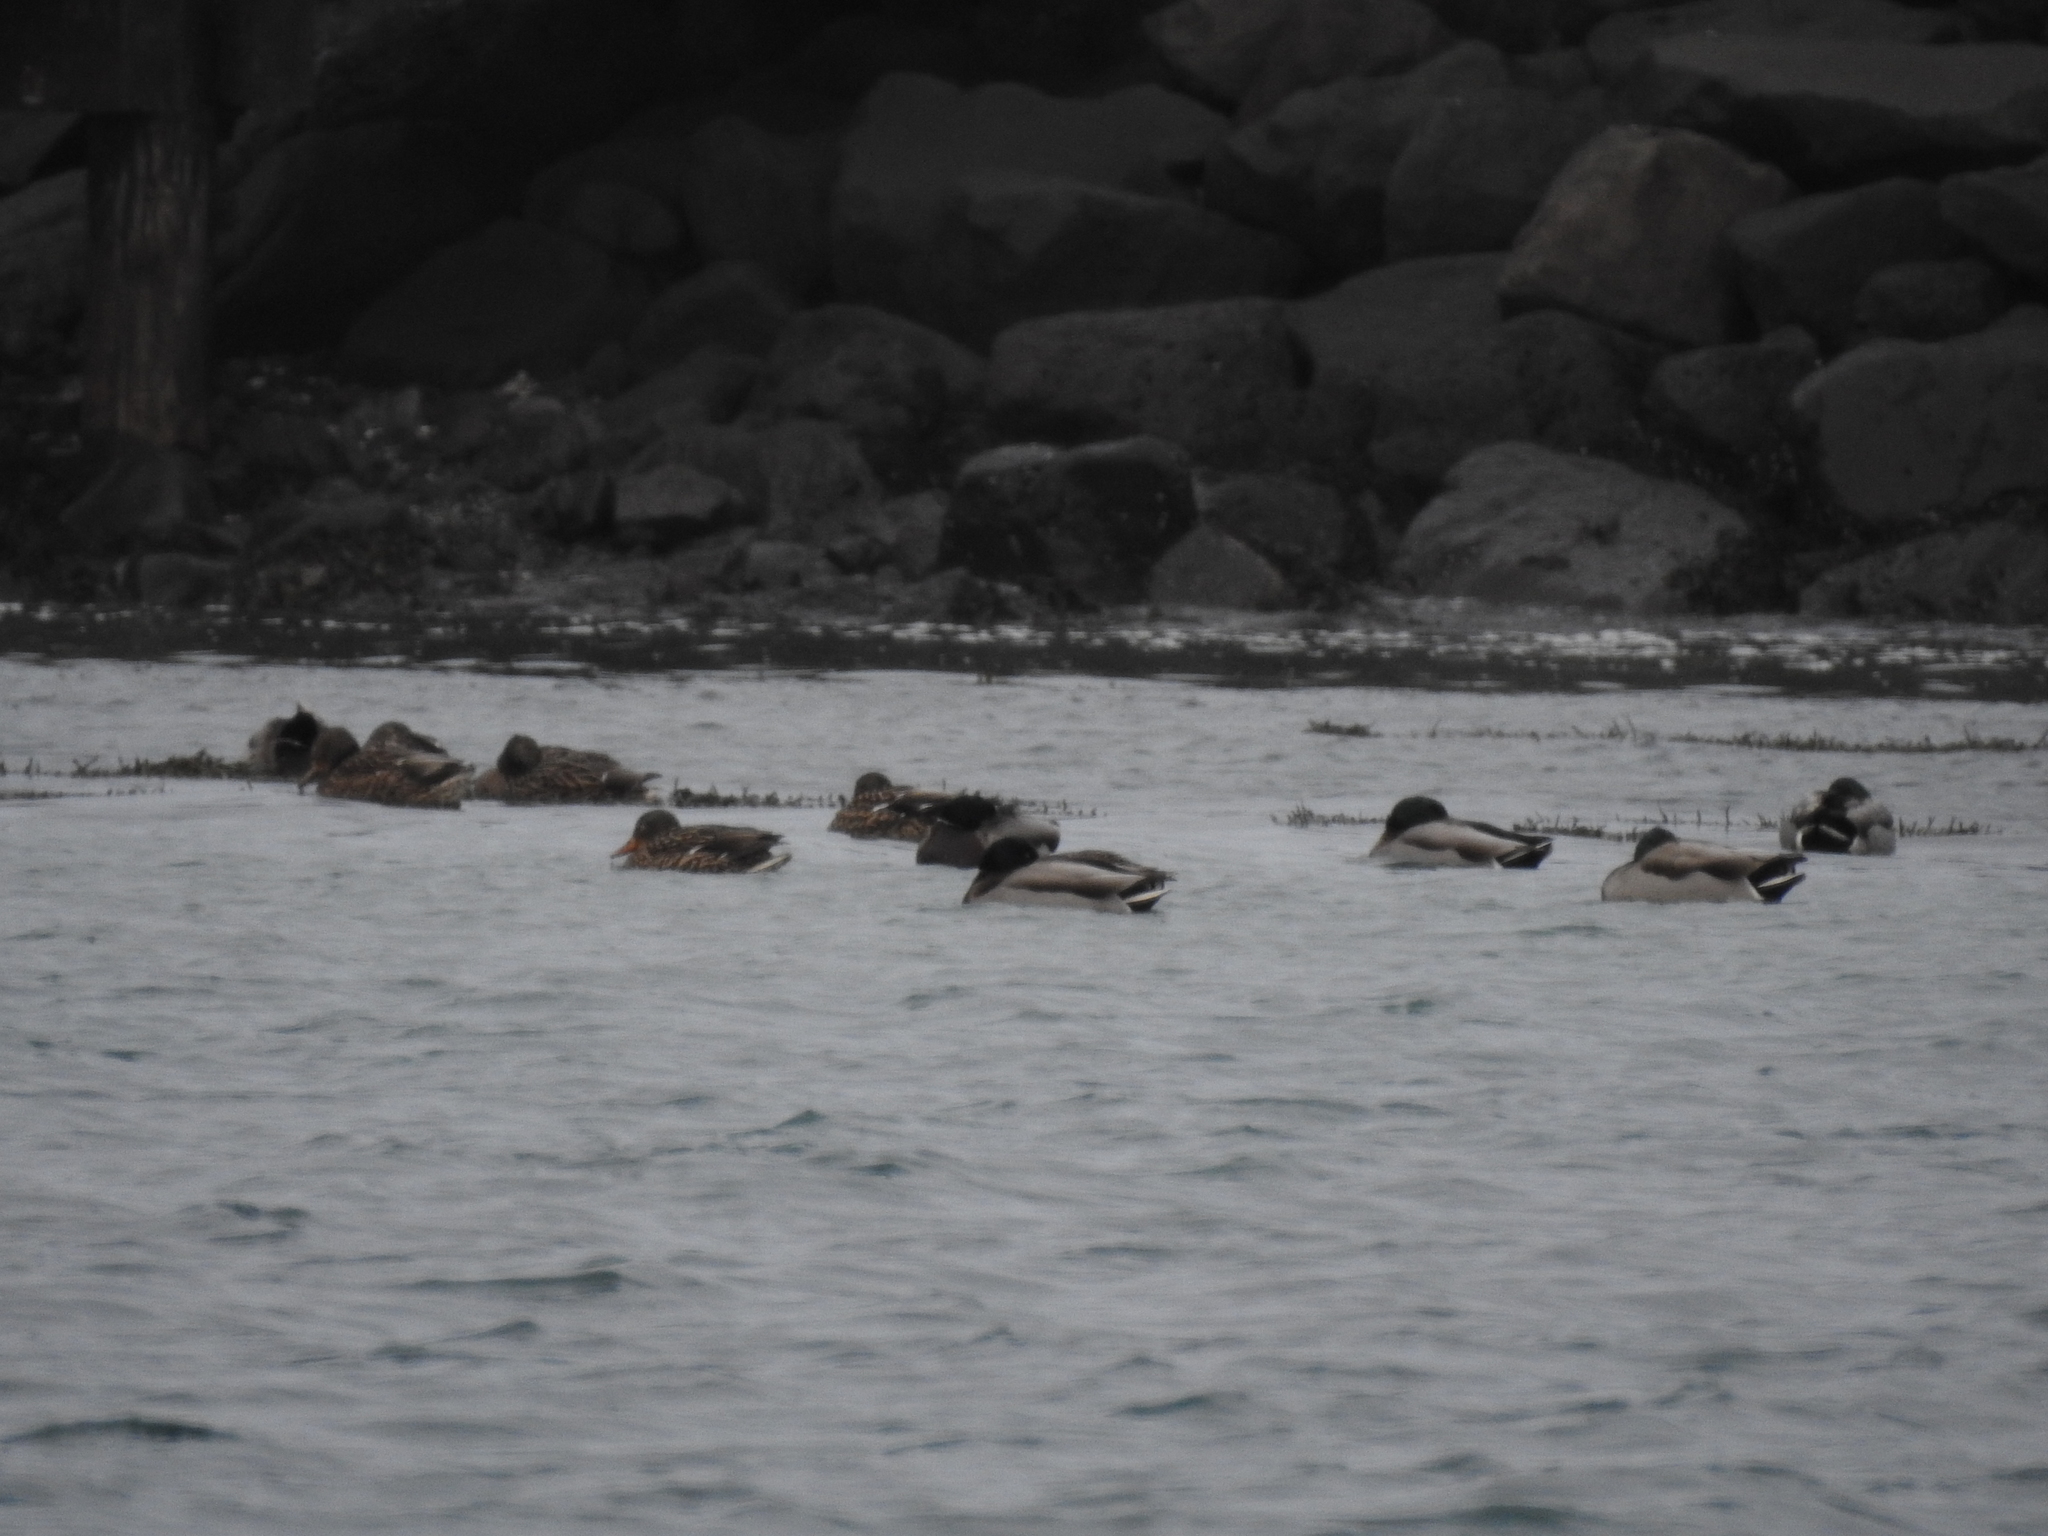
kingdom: Animalia
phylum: Chordata
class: Aves
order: Anseriformes
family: Anatidae
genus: Anas
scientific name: Anas platyrhynchos
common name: Mallard
